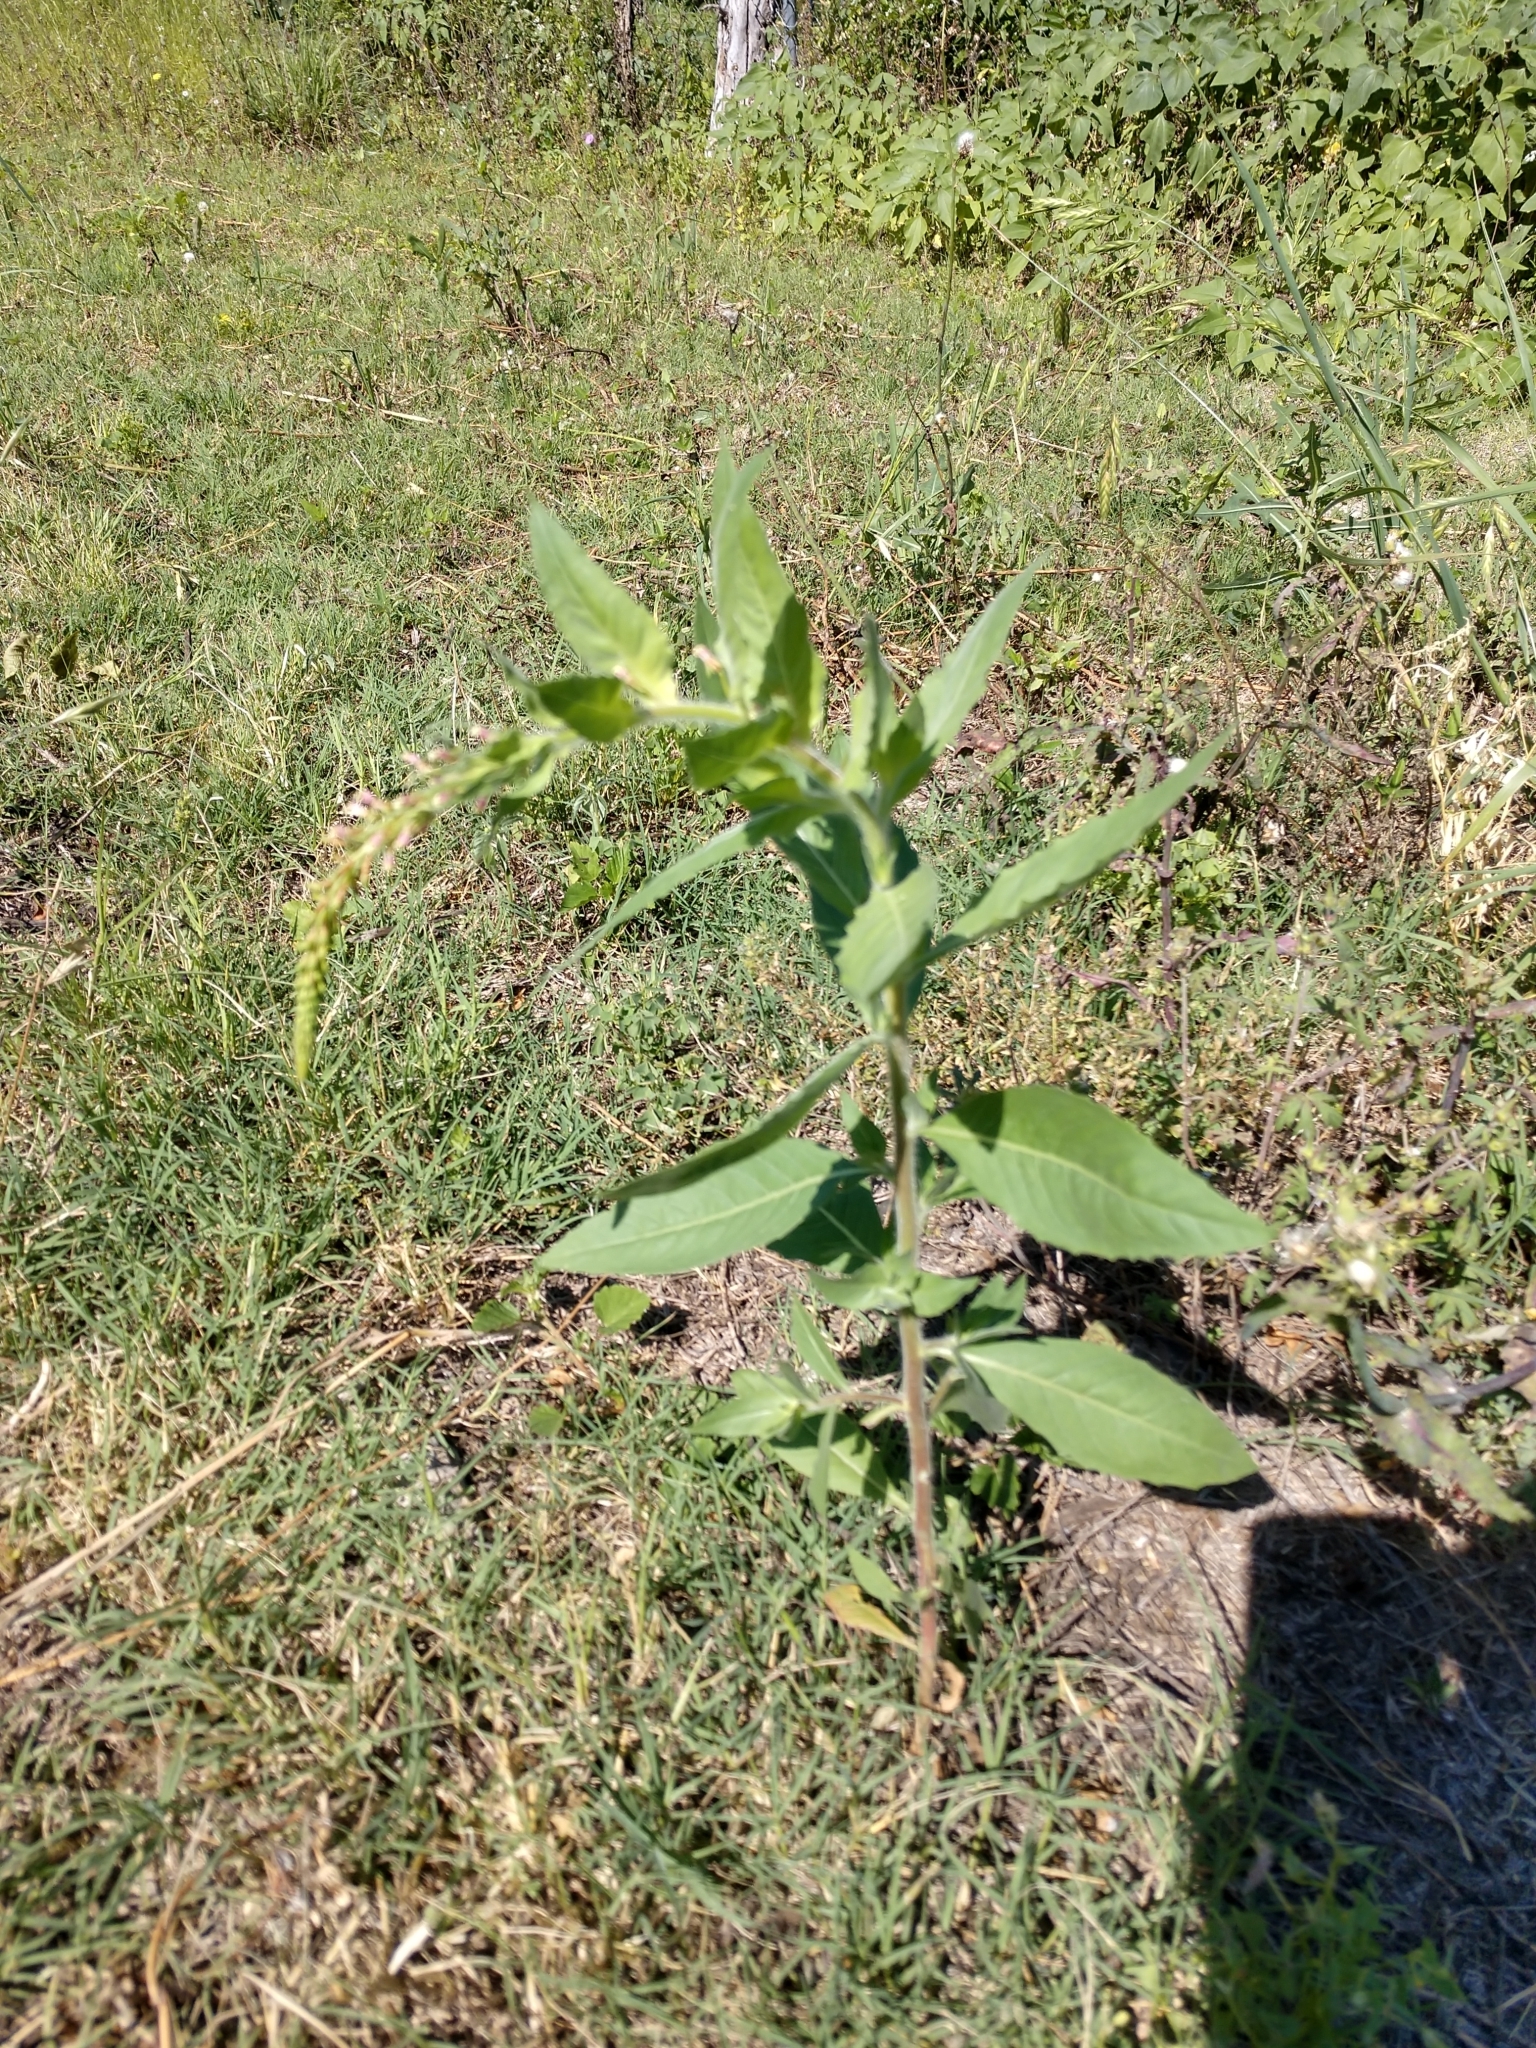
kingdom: Plantae
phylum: Tracheophyta
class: Magnoliopsida
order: Myrtales
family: Onagraceae
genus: Oenothera
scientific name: Oenothera curtiflora
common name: Velvetweed
